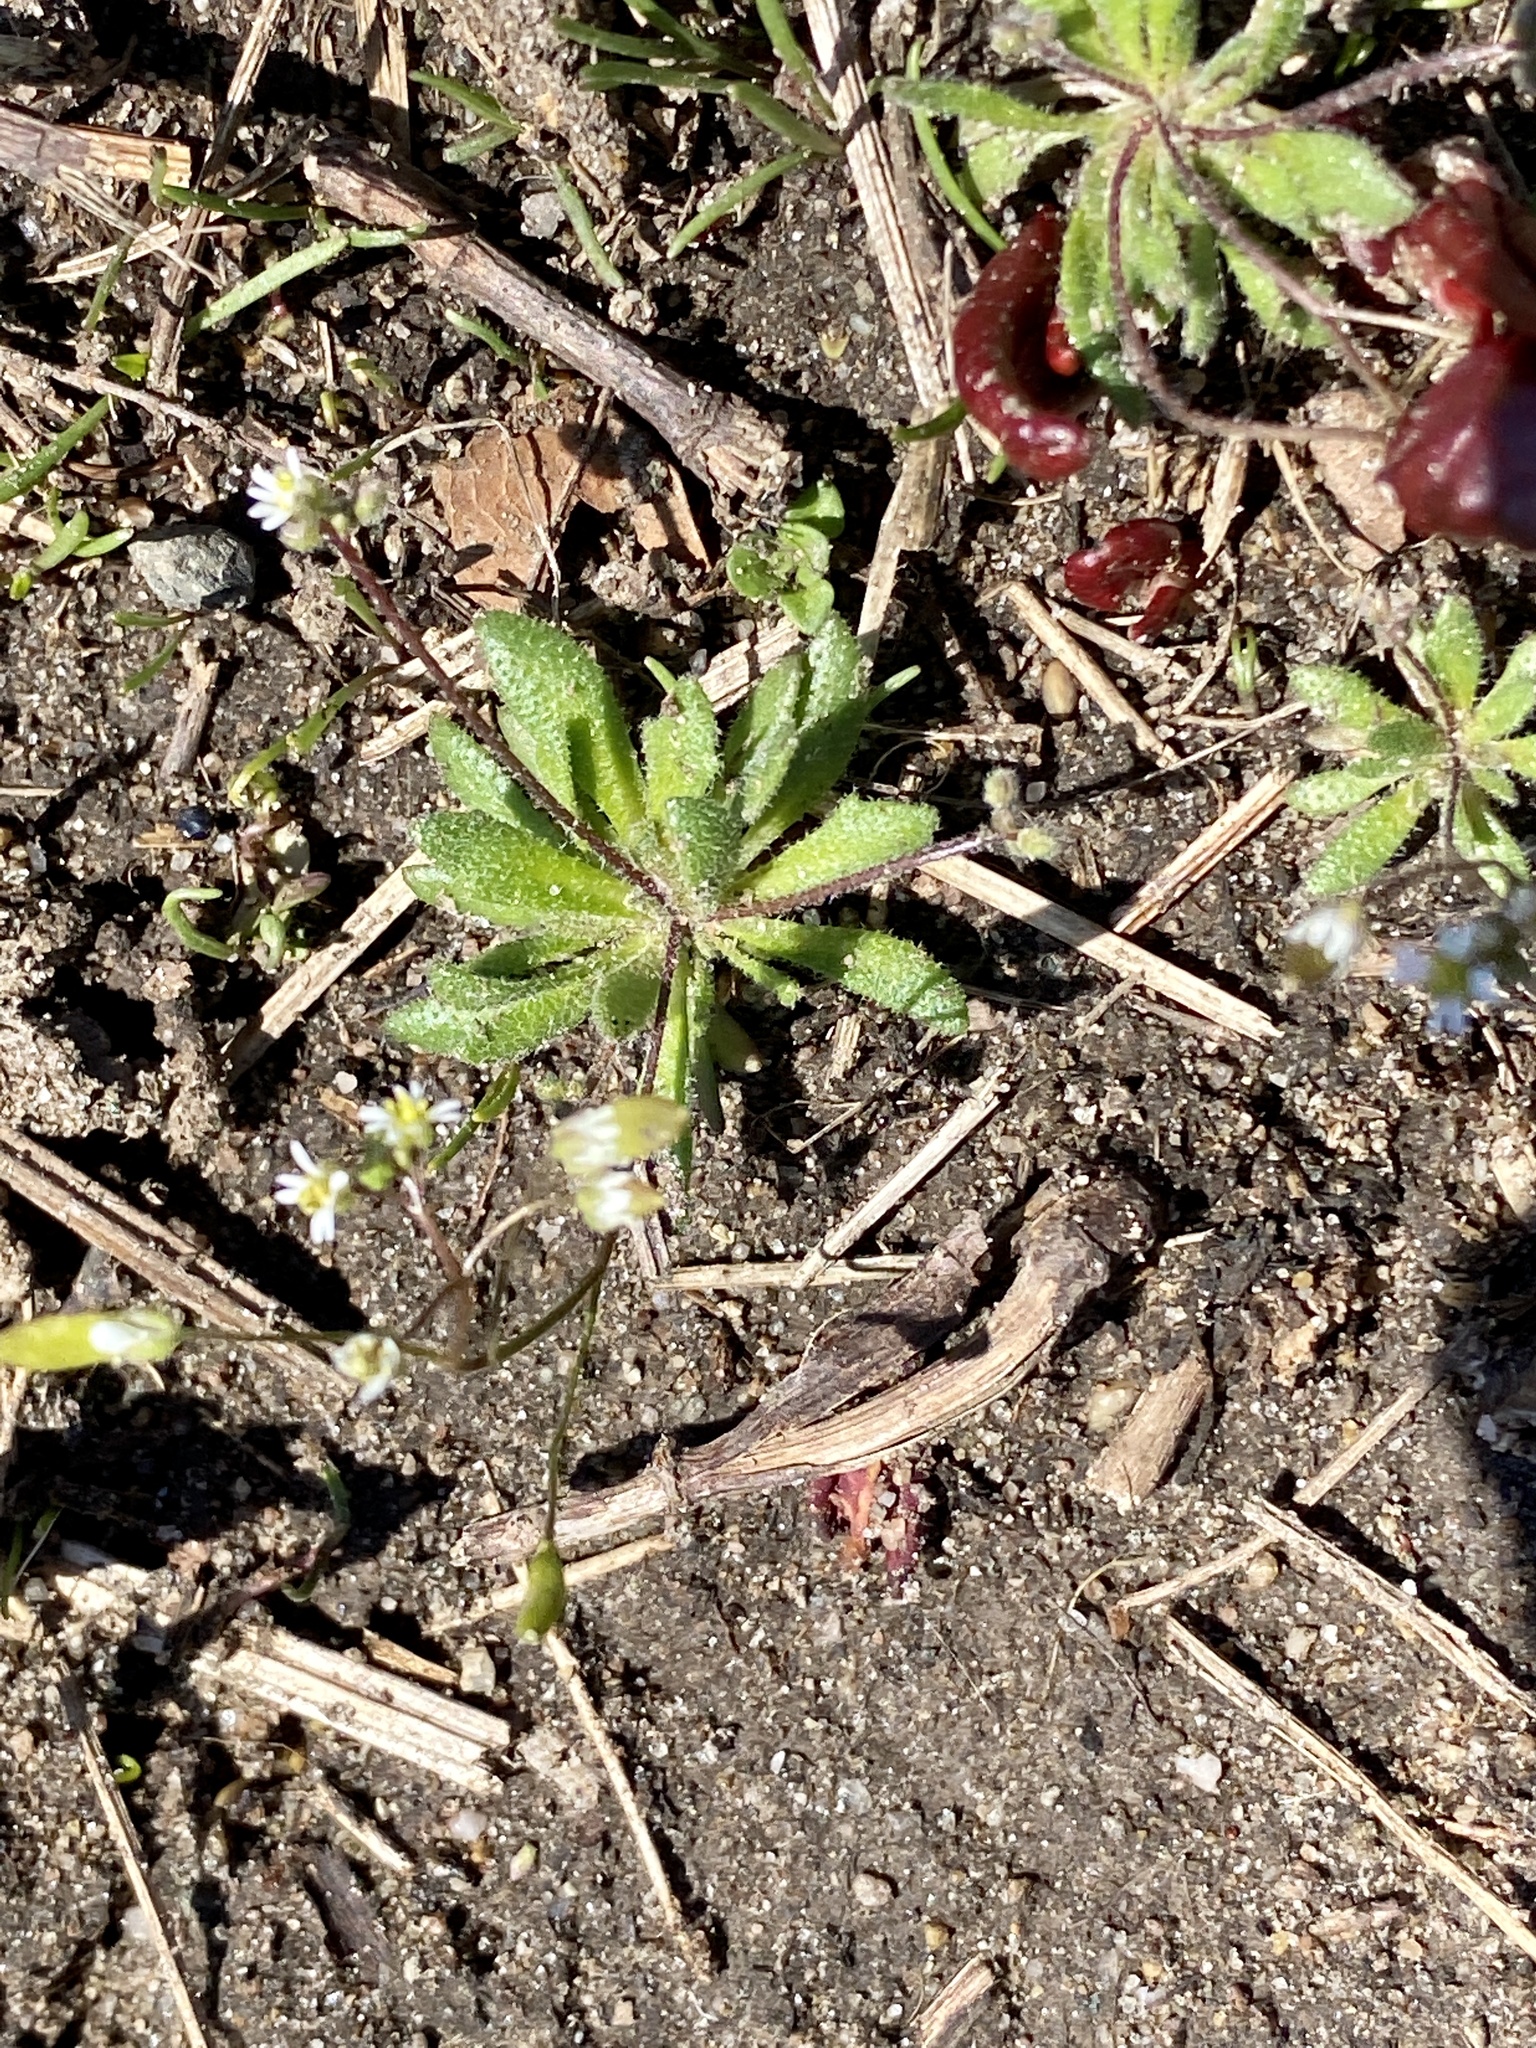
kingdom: Plantae
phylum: Tracheophyta
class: Magnoliopsida
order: Brassicales
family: Brassicaceae
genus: Draba
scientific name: Draba verna
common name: Spring draba
